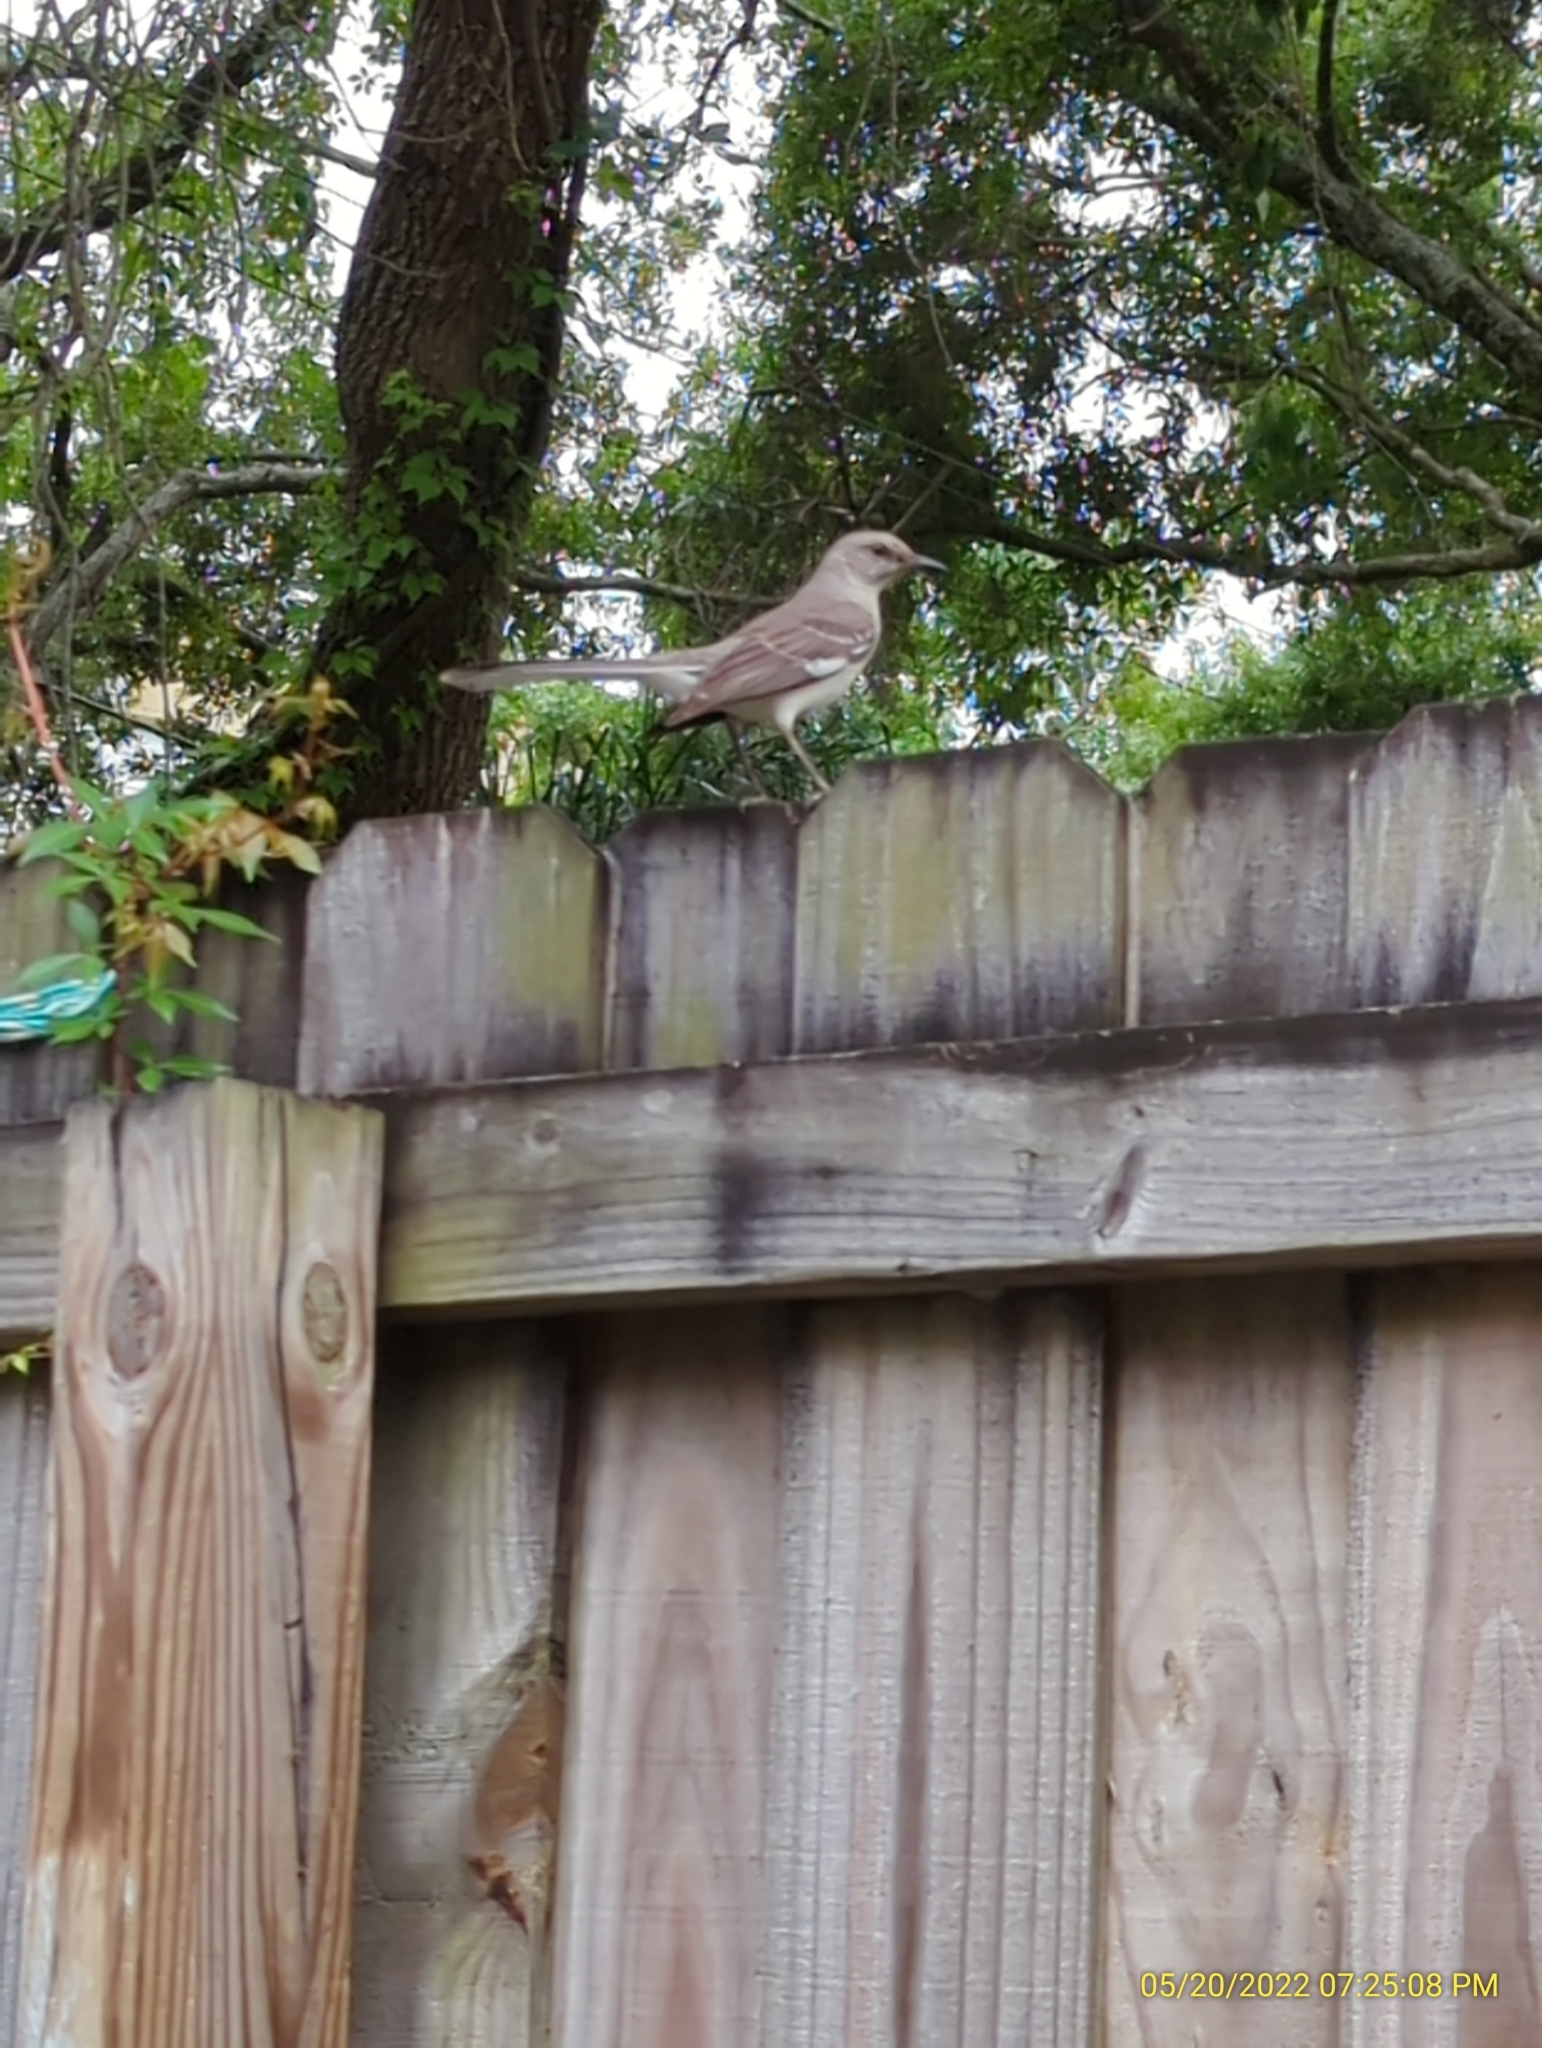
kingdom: Animalia
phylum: Chordata
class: Aves
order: Passeriformes
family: Mimidae
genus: Mimus
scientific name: Mimus polyglottos
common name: Northern mockingbird
